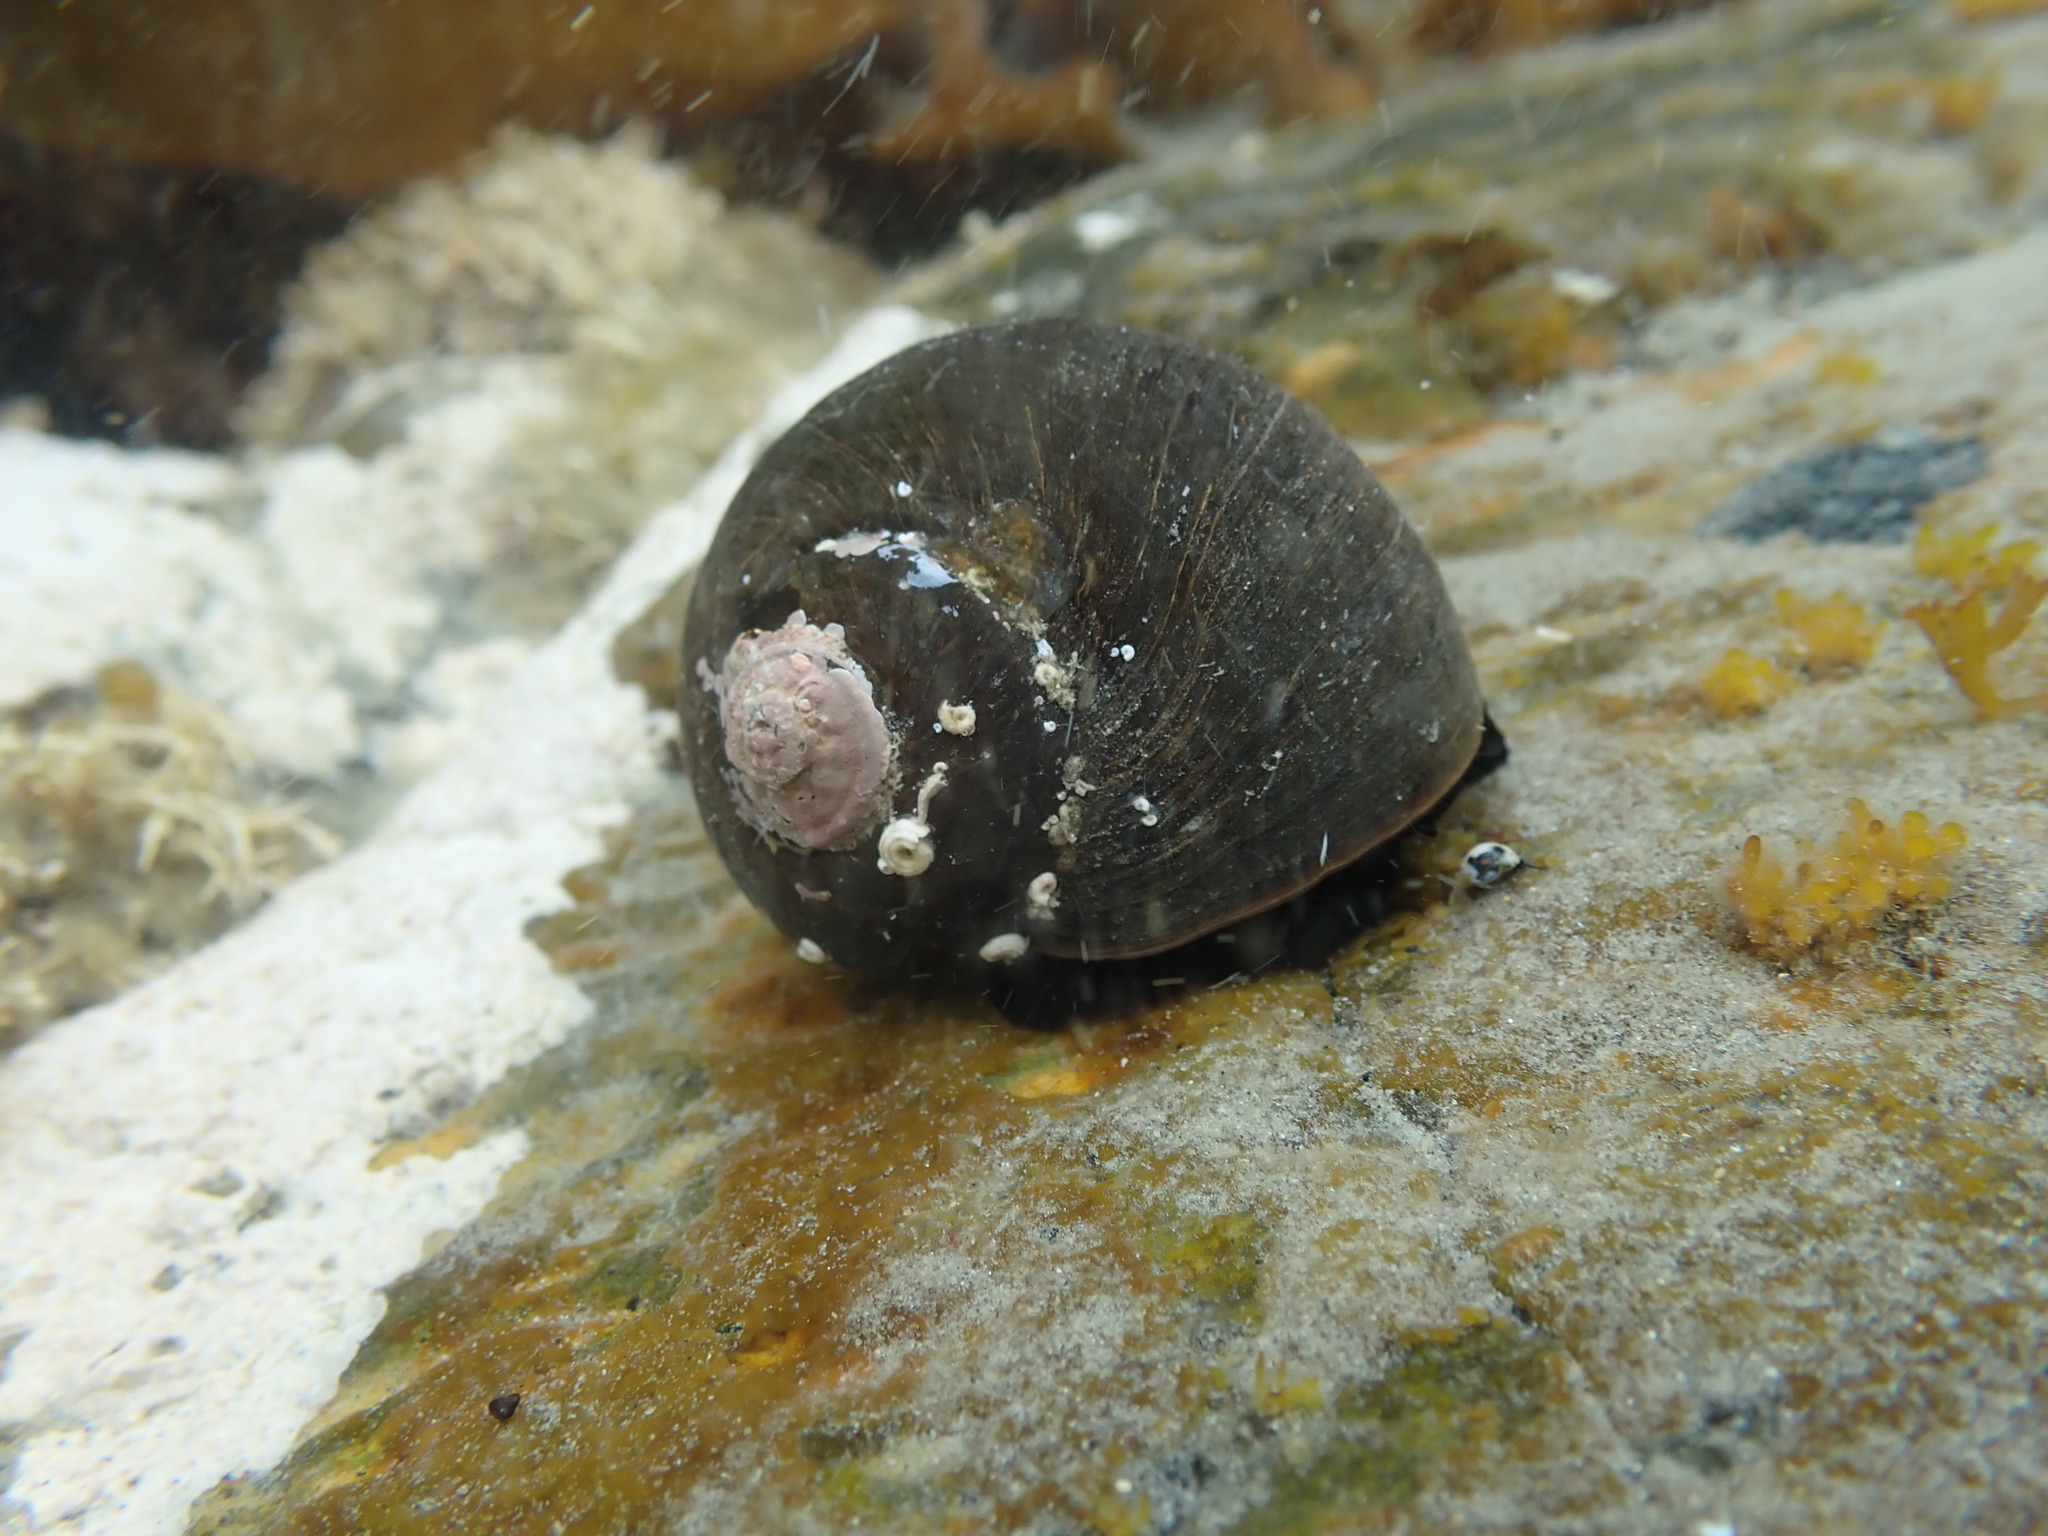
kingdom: Animalia
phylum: Mollusca
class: Gastropoda
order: Trochida
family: Turbinidae
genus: Lunella
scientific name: Lunella smaragda
